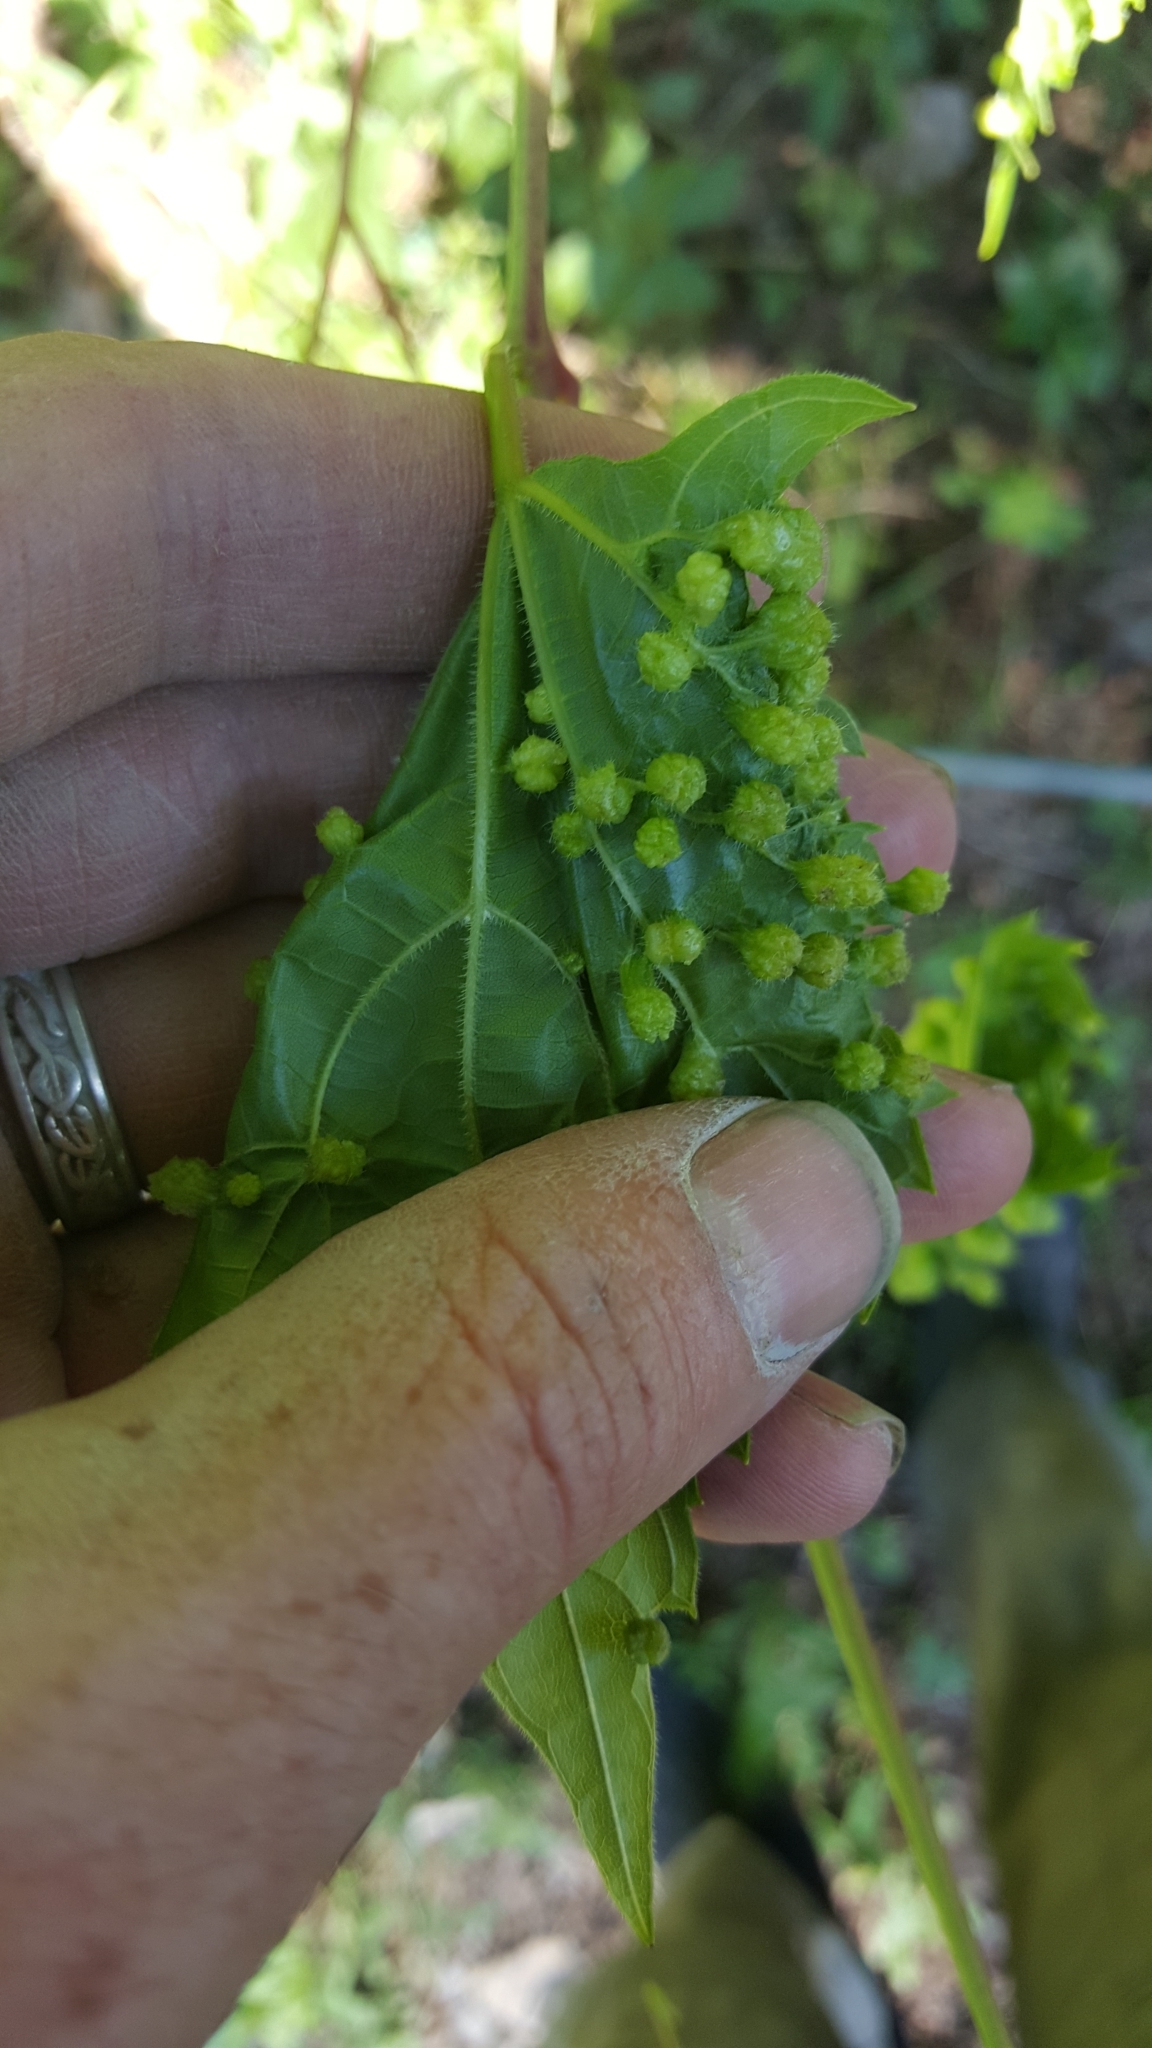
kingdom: Animalia
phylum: Arthropoda
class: Insecta
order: Hemiptera
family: Phylloxeridae
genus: Daktulosphaira
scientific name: Daktulosphaira vitifoliae
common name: Grape phylloxera
